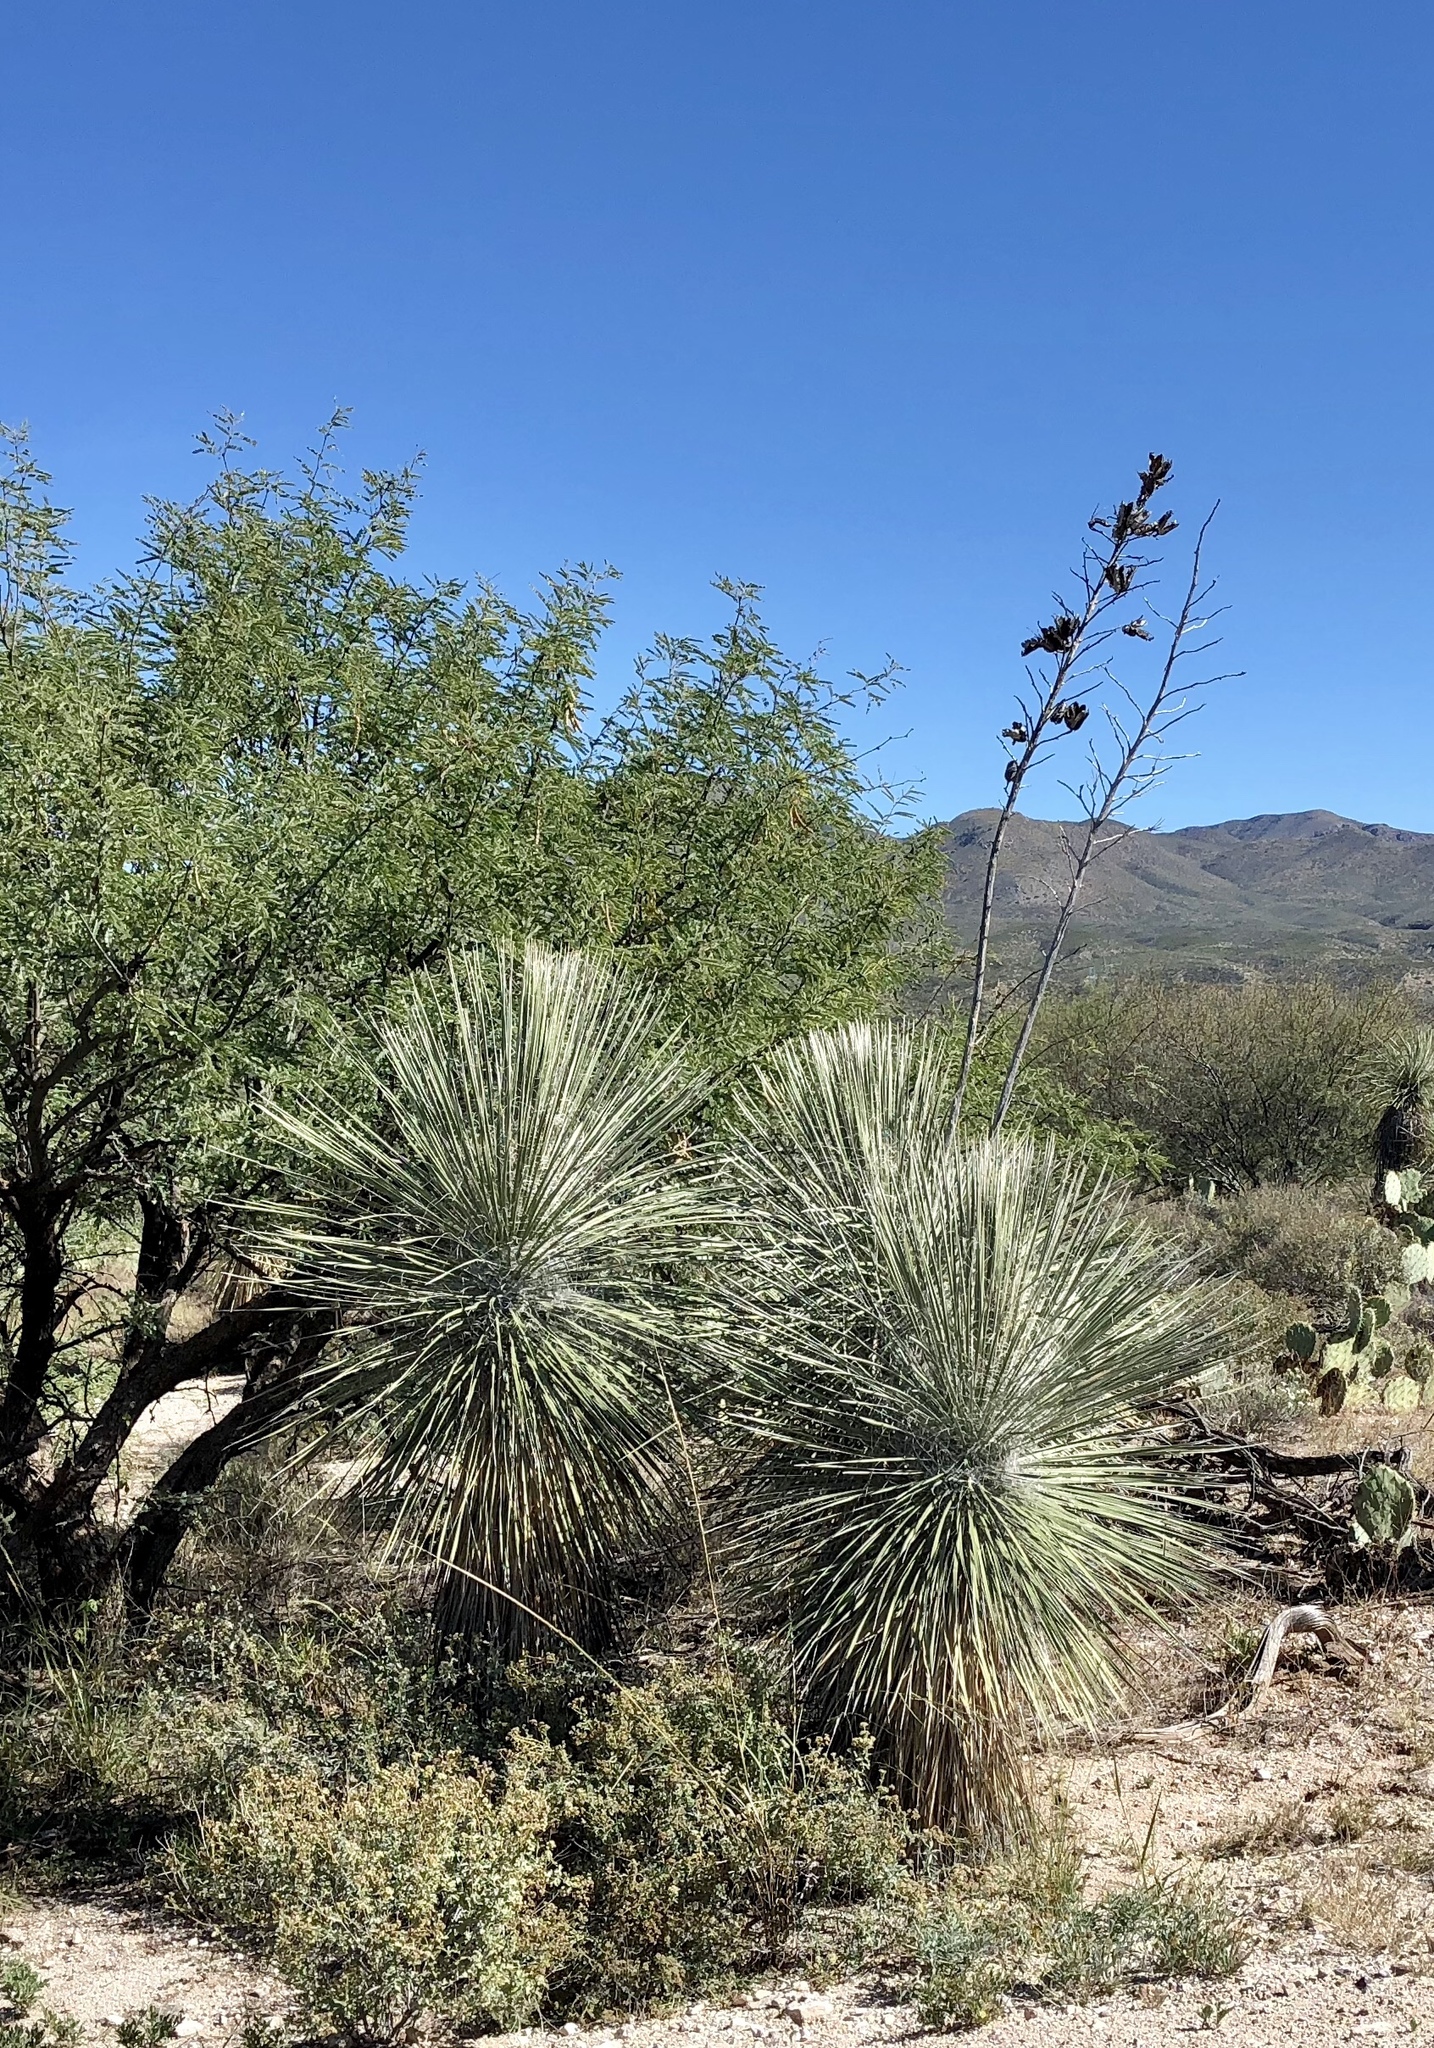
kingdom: Plantae
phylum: Tracheophyta
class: Liliopsida
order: Asparagales
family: Asparagaceae
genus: Yucca
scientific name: Yucca elata
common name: Palmella
